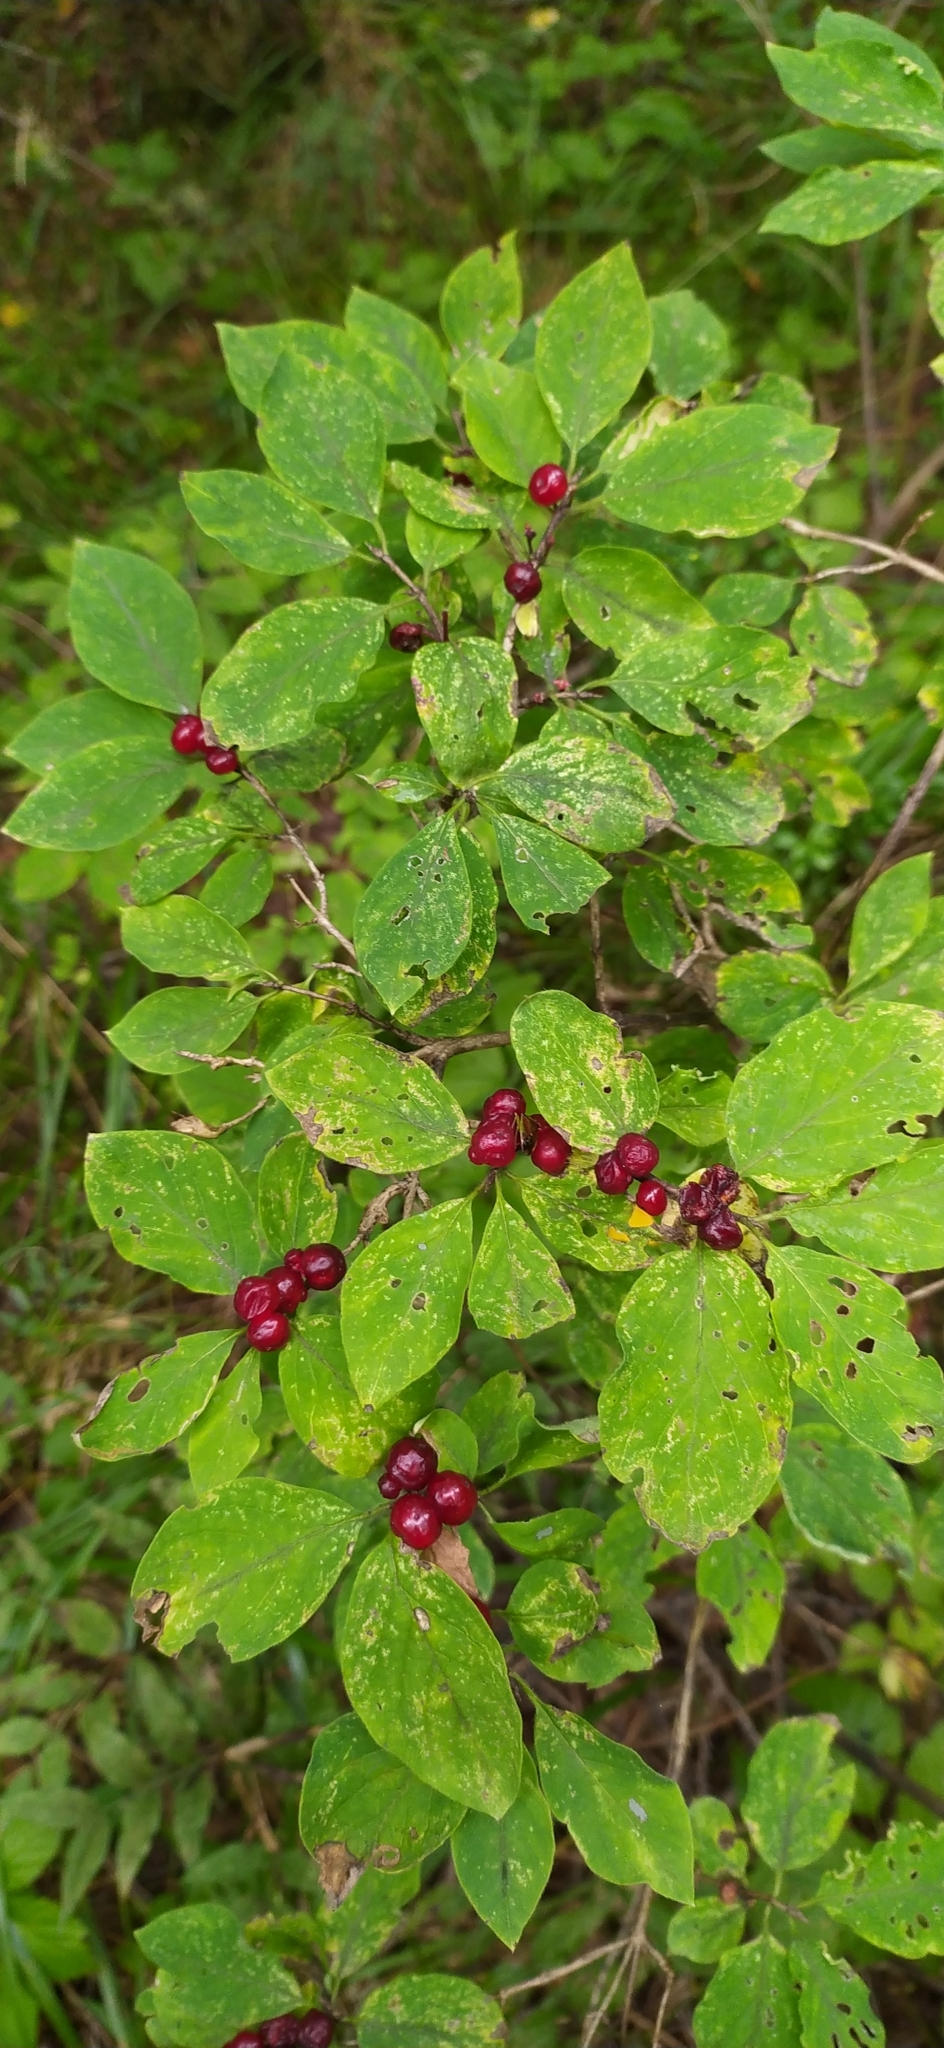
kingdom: Plantae
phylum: Tracheophyta
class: Magnoliopsida
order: Dipsacales
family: Caprifoliaceae
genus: Lonicera
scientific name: Lonicera xylosteum
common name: Fly honeysuckle
